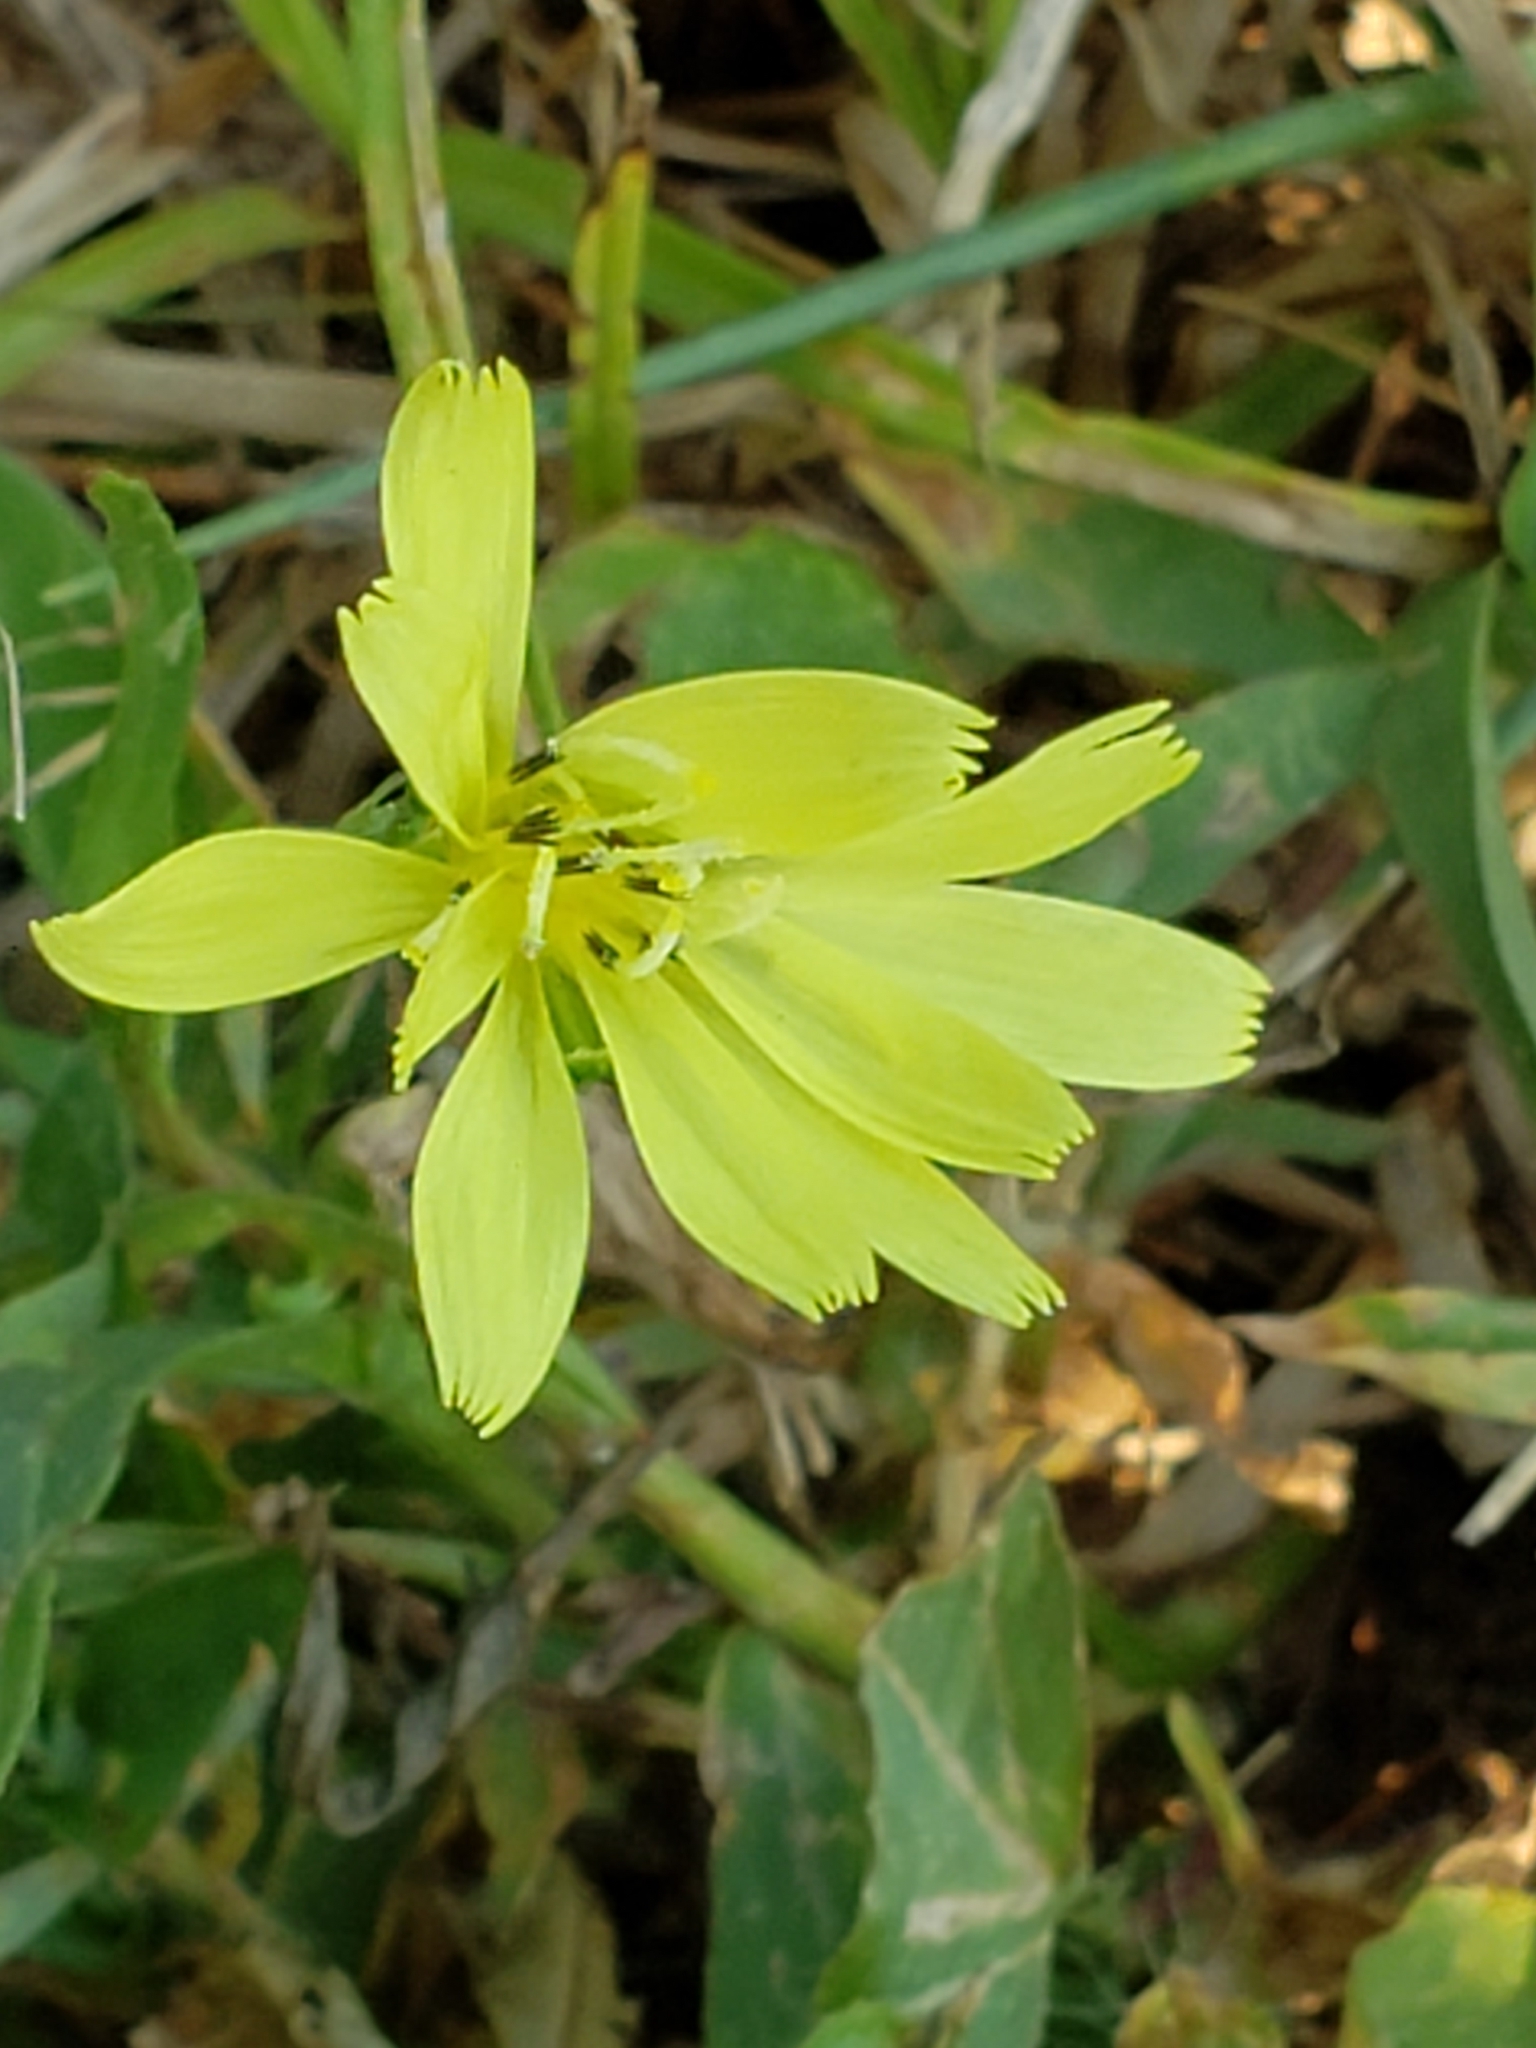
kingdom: Plantae
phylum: Tracheophyta
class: Magnoliopsida
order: Asterales
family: Asteraceae
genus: Pyrrhopappus
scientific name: Pyrrhopappus carolinianus
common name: Carolina desert-chicory
